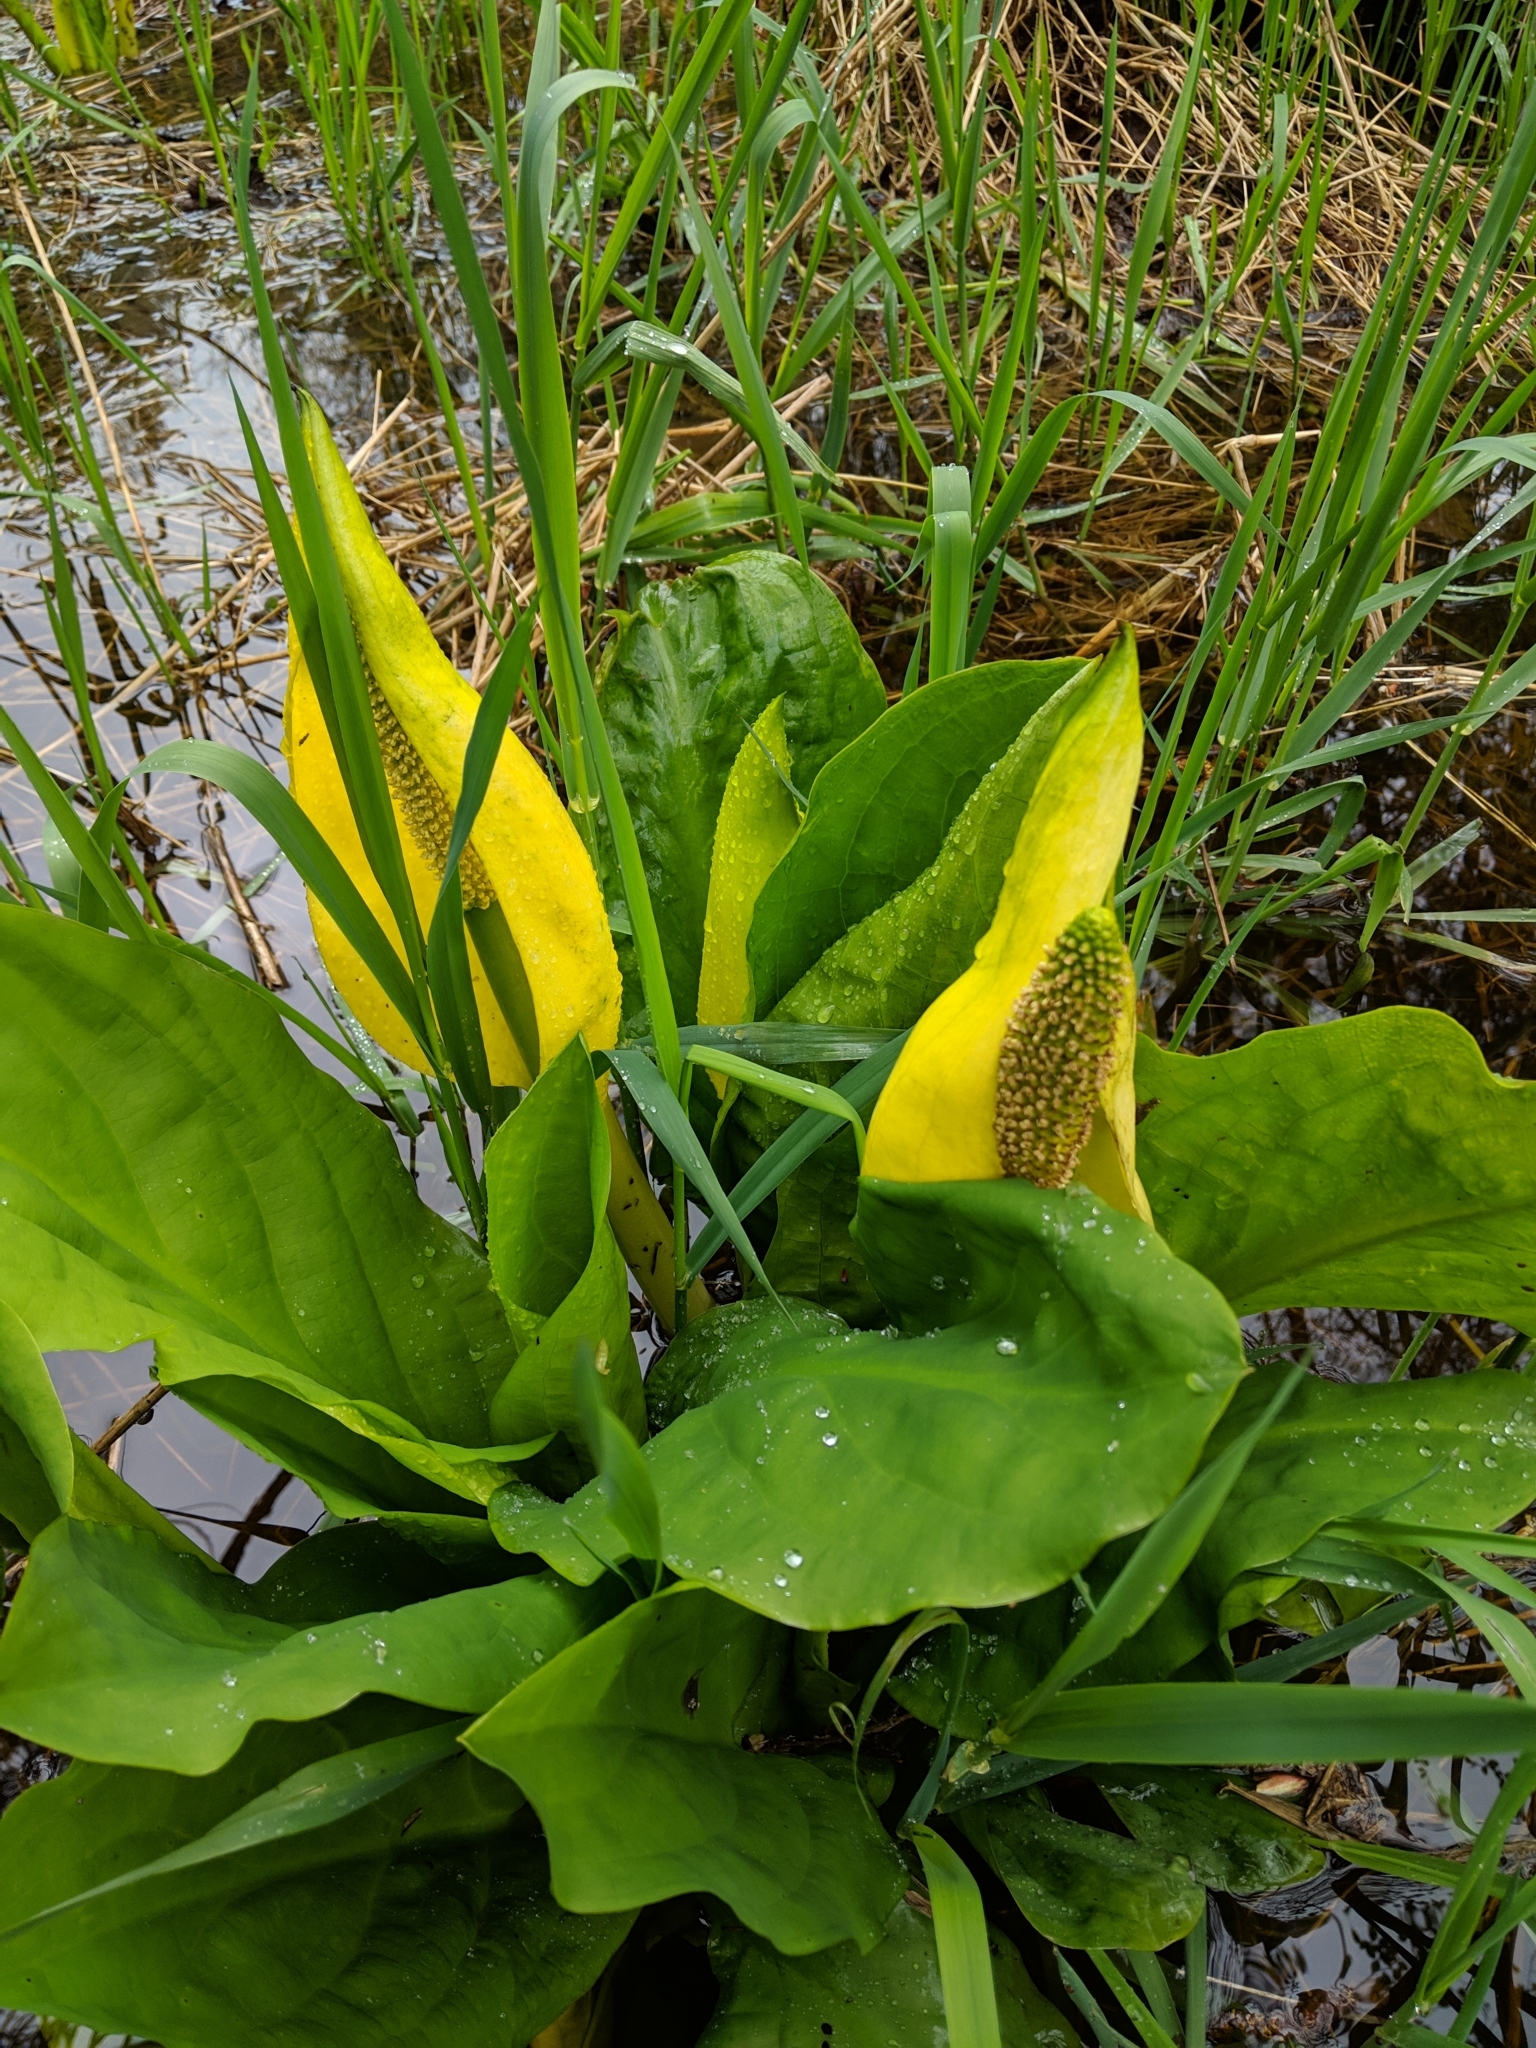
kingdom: Plantae
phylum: Tracheophyta
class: Liliopsida
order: Alismatales
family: Araceae
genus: Lysichiton
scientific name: Lysichiton americanus
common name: American skunk cabbage
